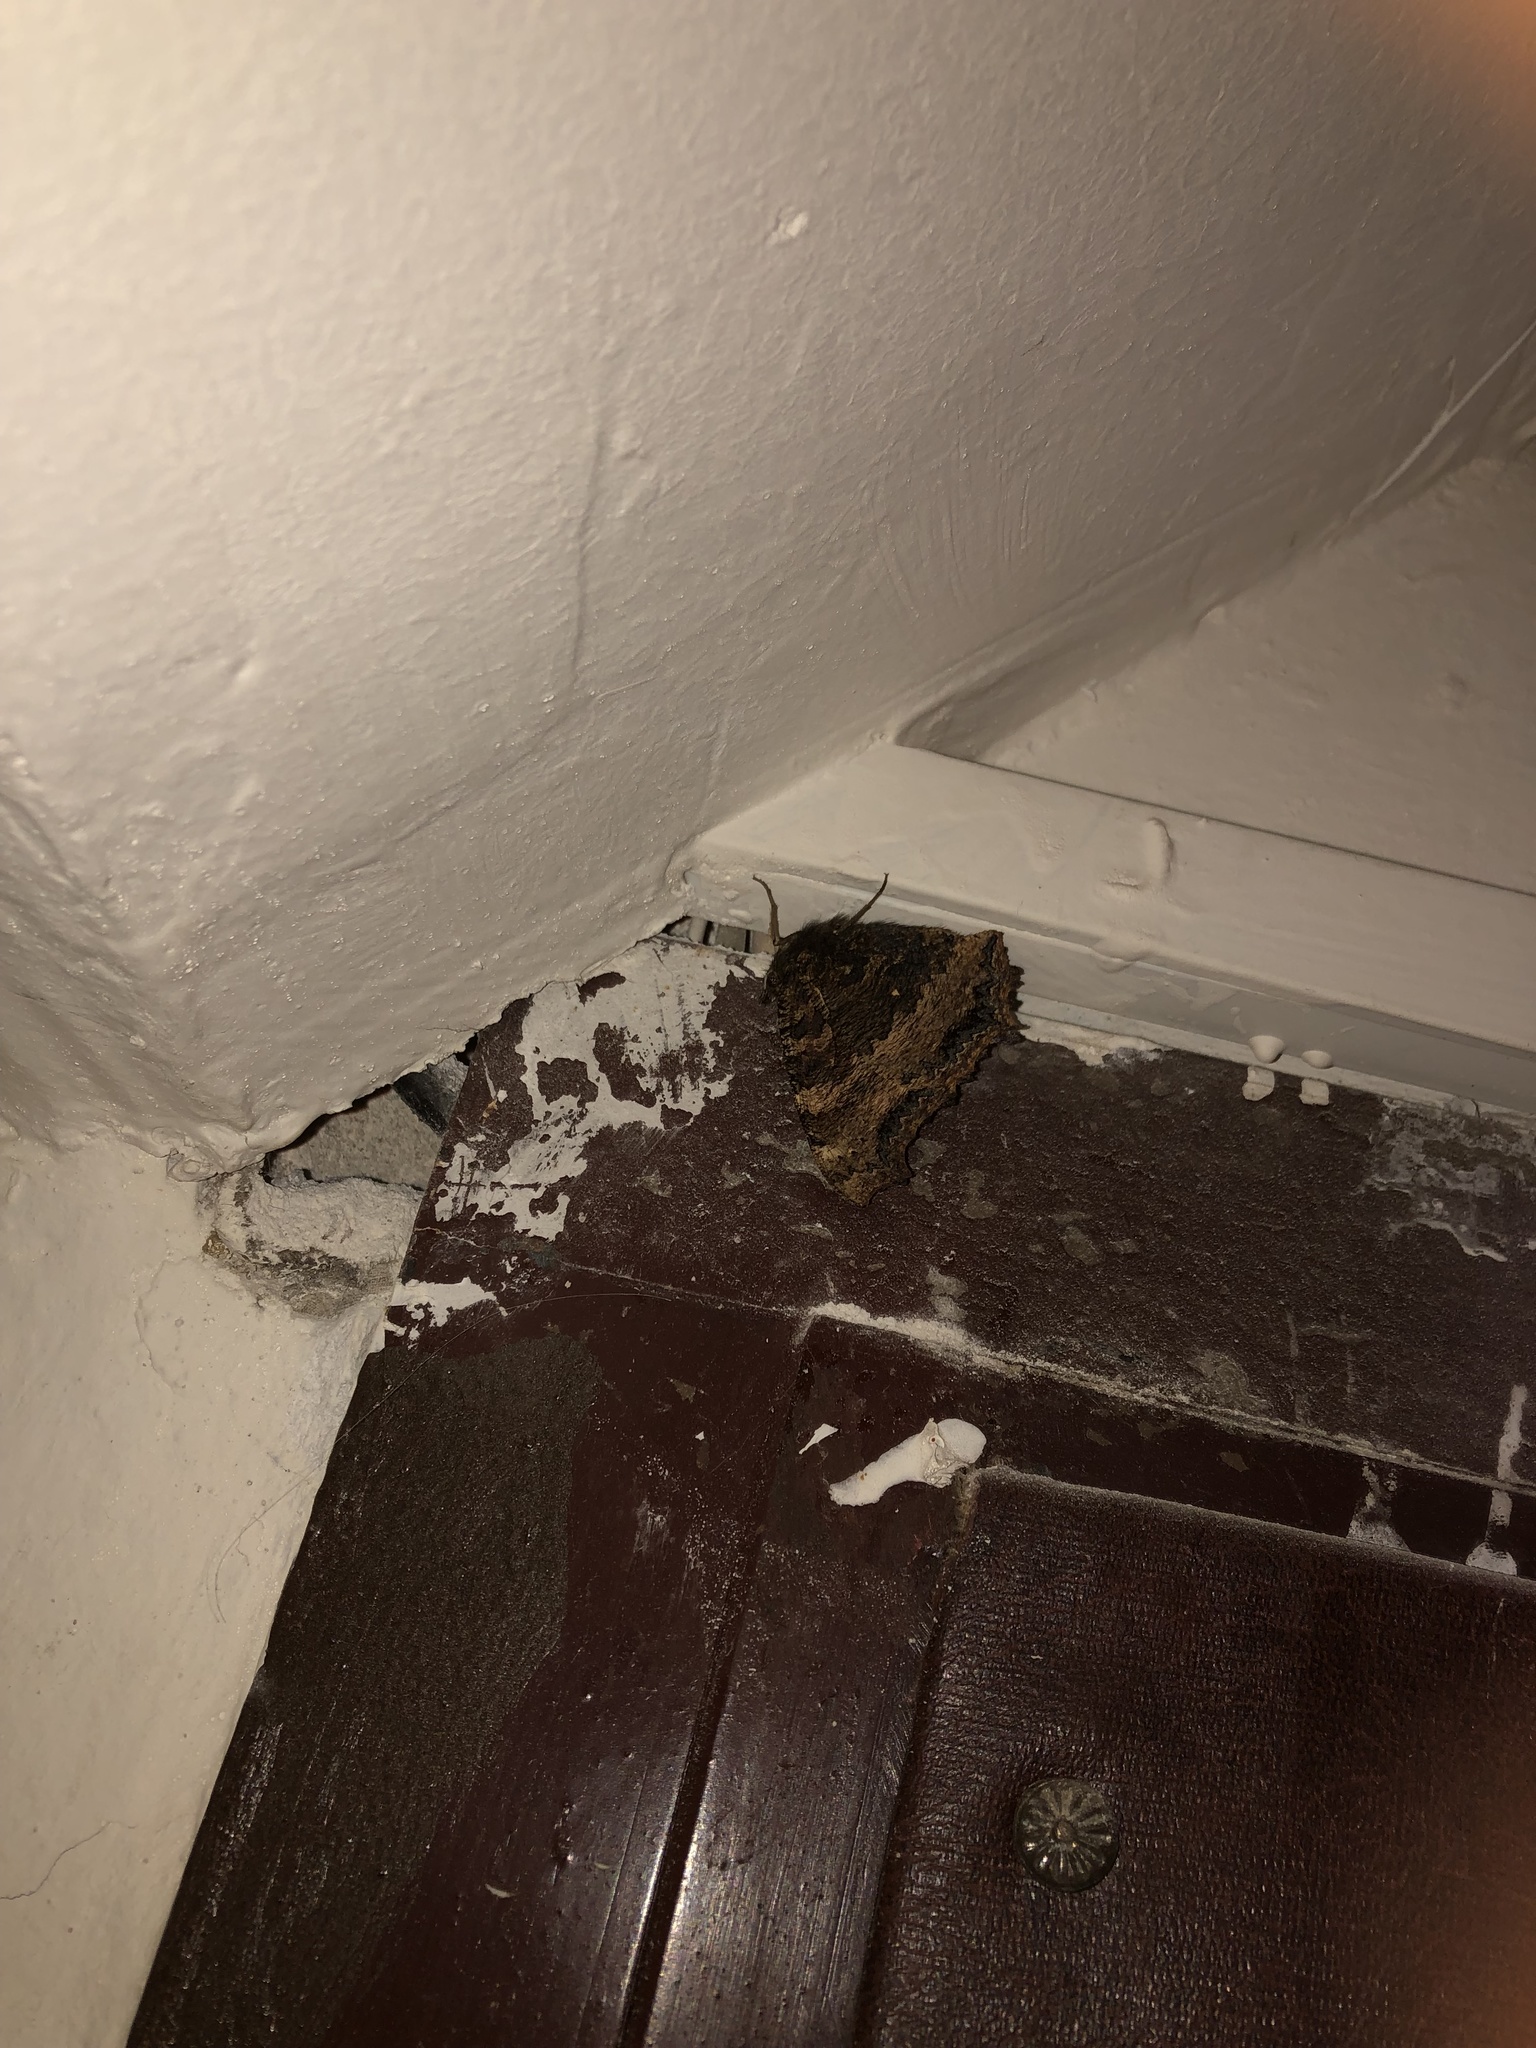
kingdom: Animalia
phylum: Arthropoda
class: Insecta
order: Lepidoptera
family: Nymphalidae
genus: Nymphalis
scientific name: Nymphalis xanthomelas
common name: Scarce tortoiseshell
